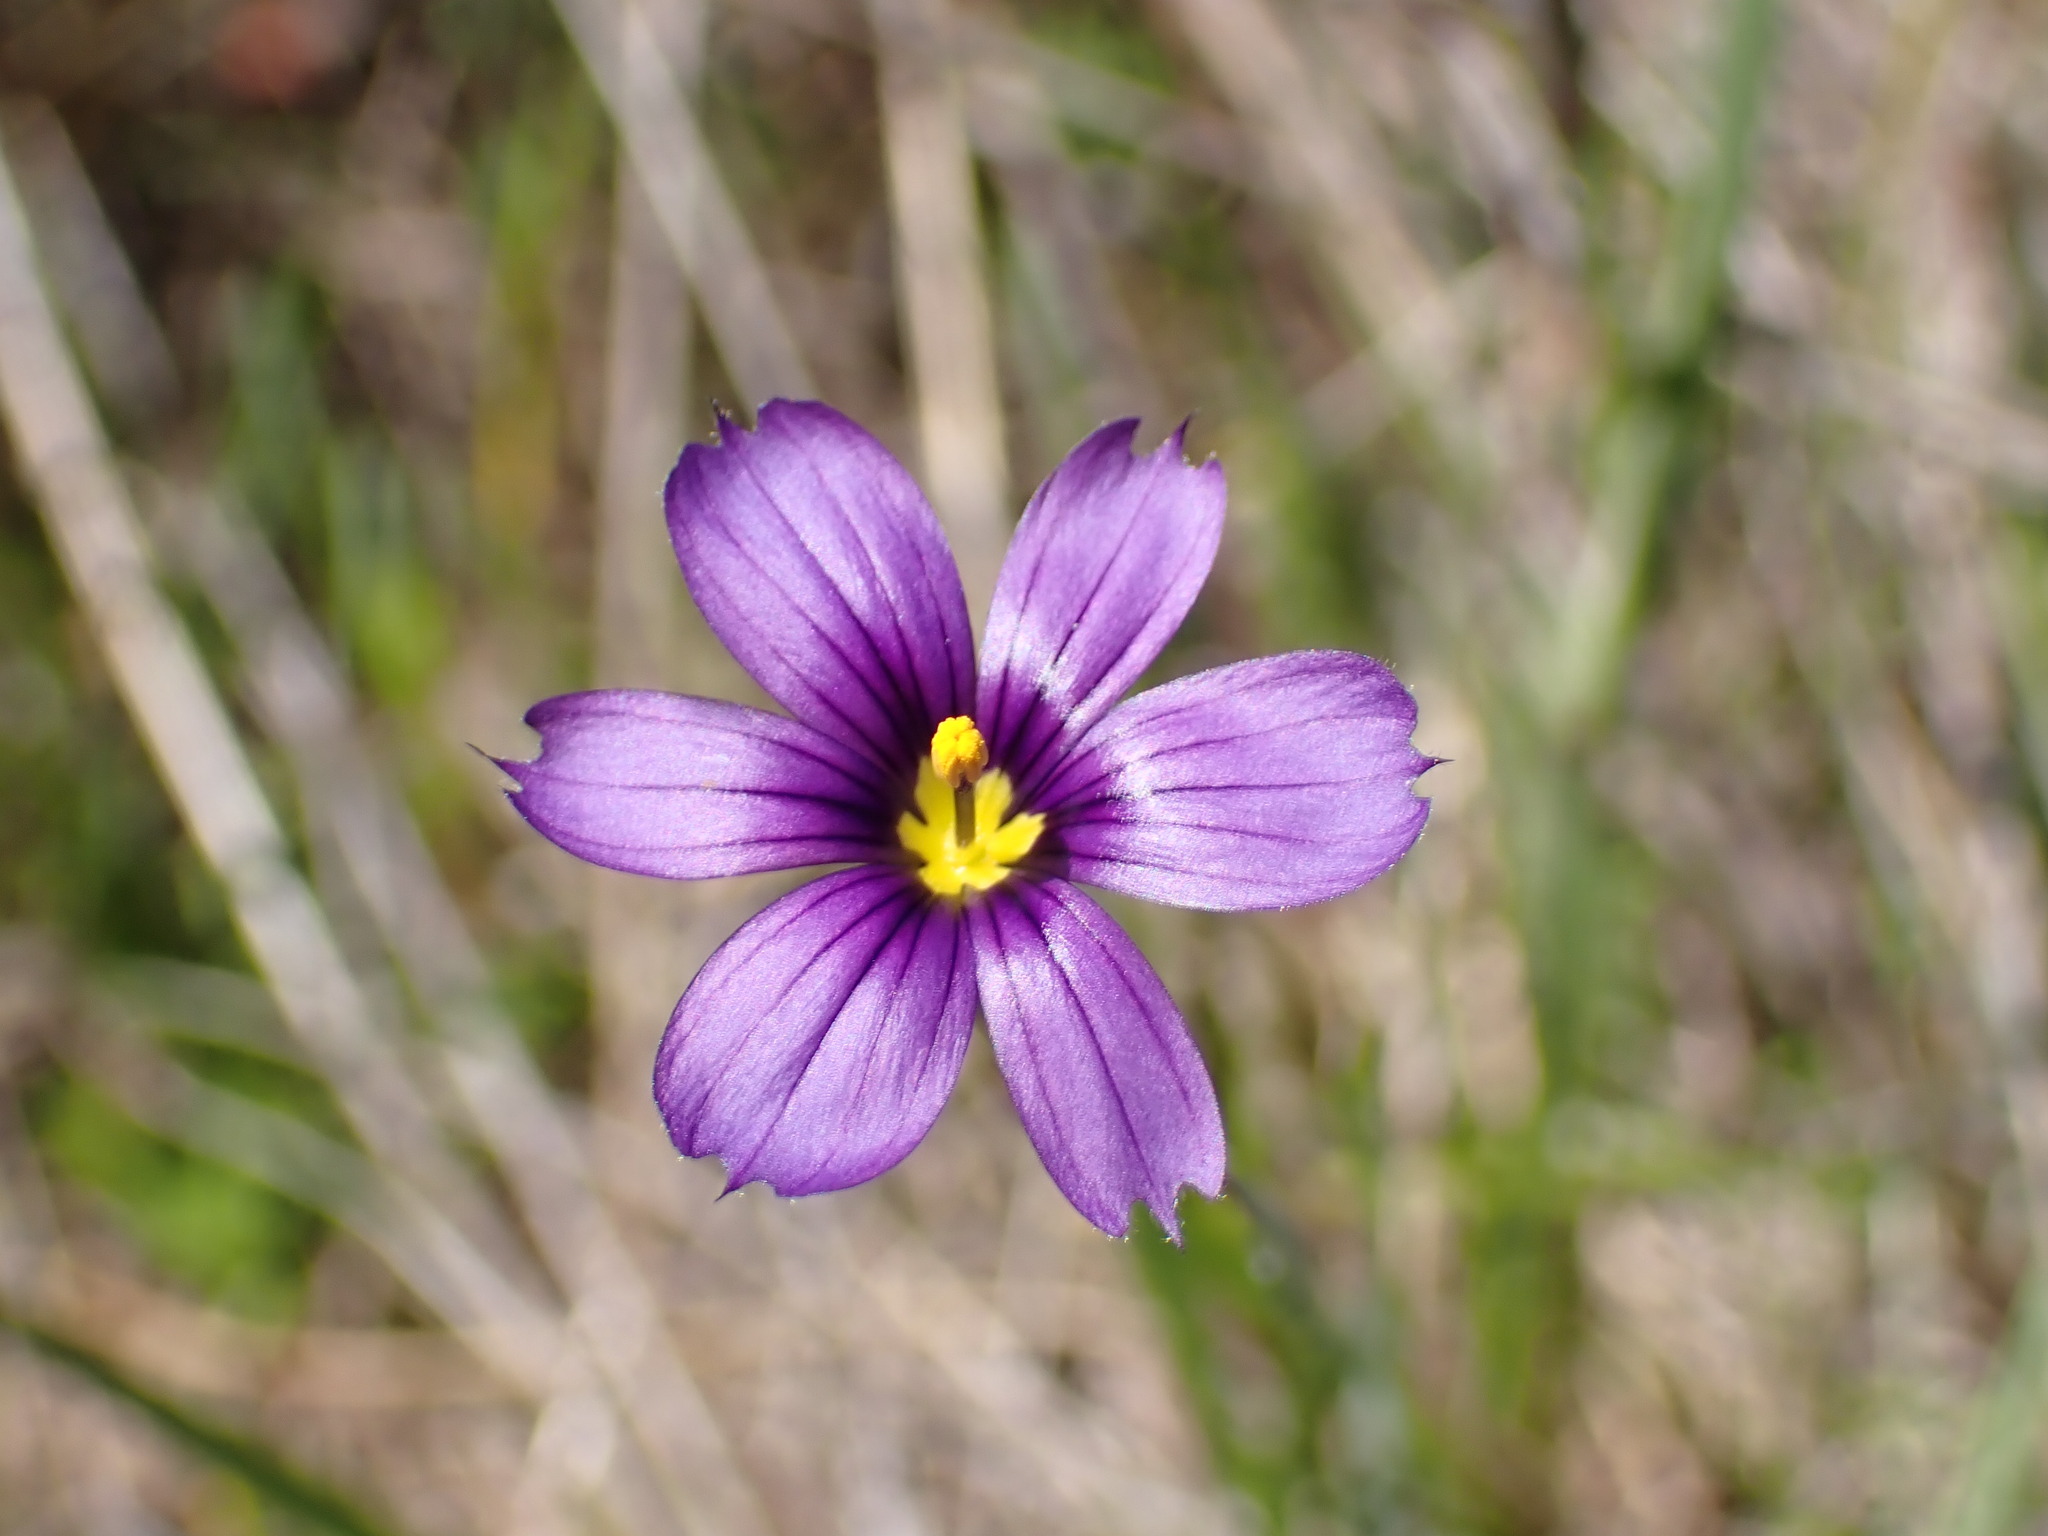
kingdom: Plantae
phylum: Tracheophyta
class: Liliopsida
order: Asparagales
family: Iridaceae
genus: Sisyrinchium
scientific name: Sisyrinchium bellum
